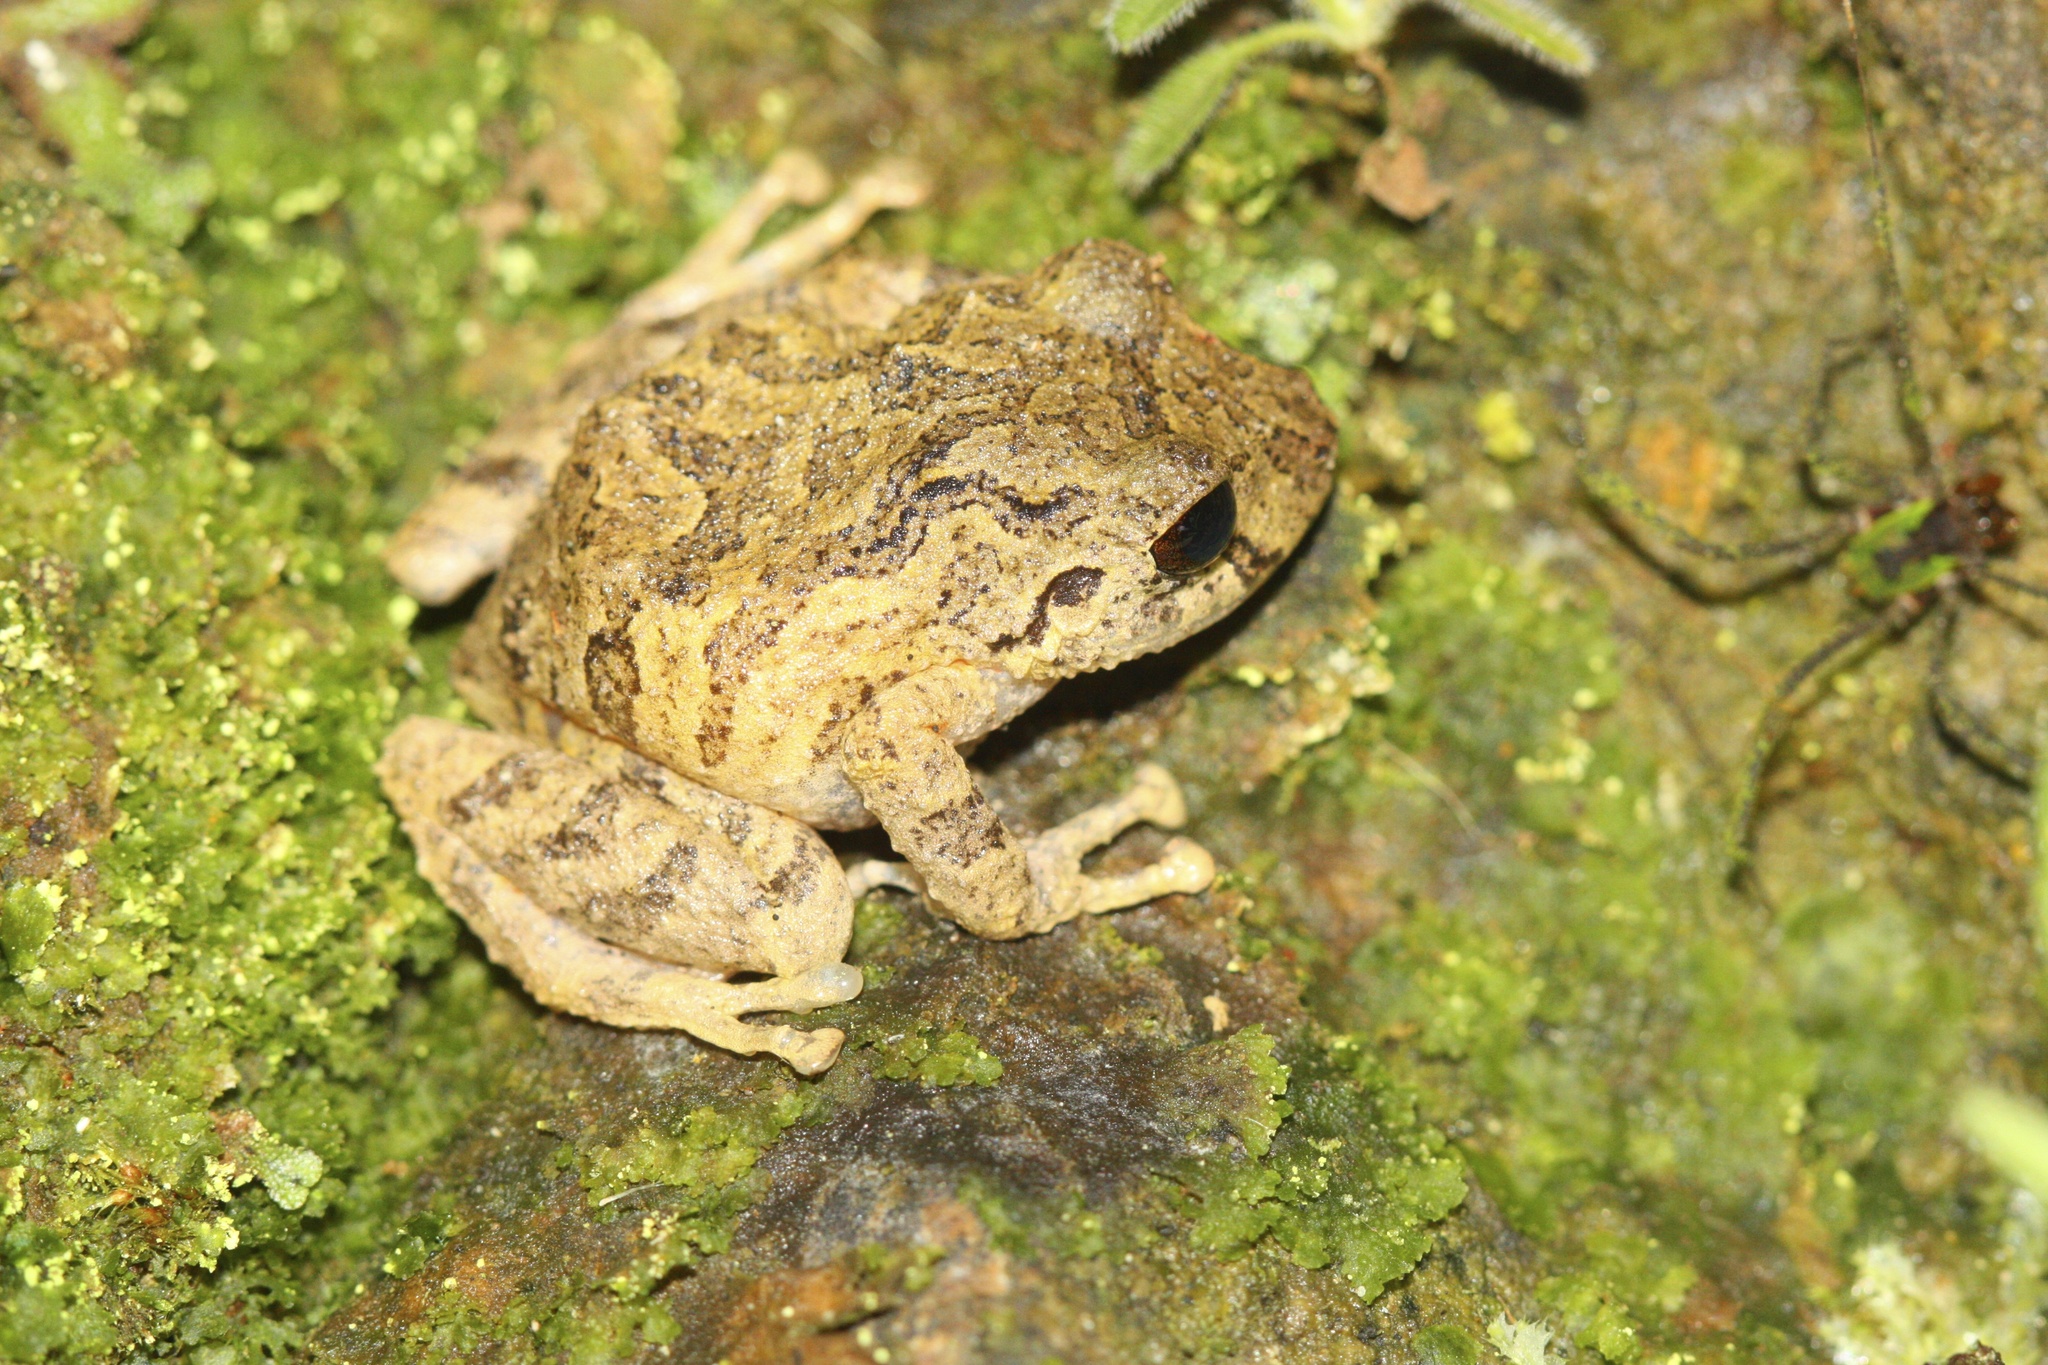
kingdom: Animalia
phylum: Chordata
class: Amphibia
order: Anura
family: Craugastoridae
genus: Pristimantis
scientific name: Pristimantis bogotensis
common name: Bogota robber frog
